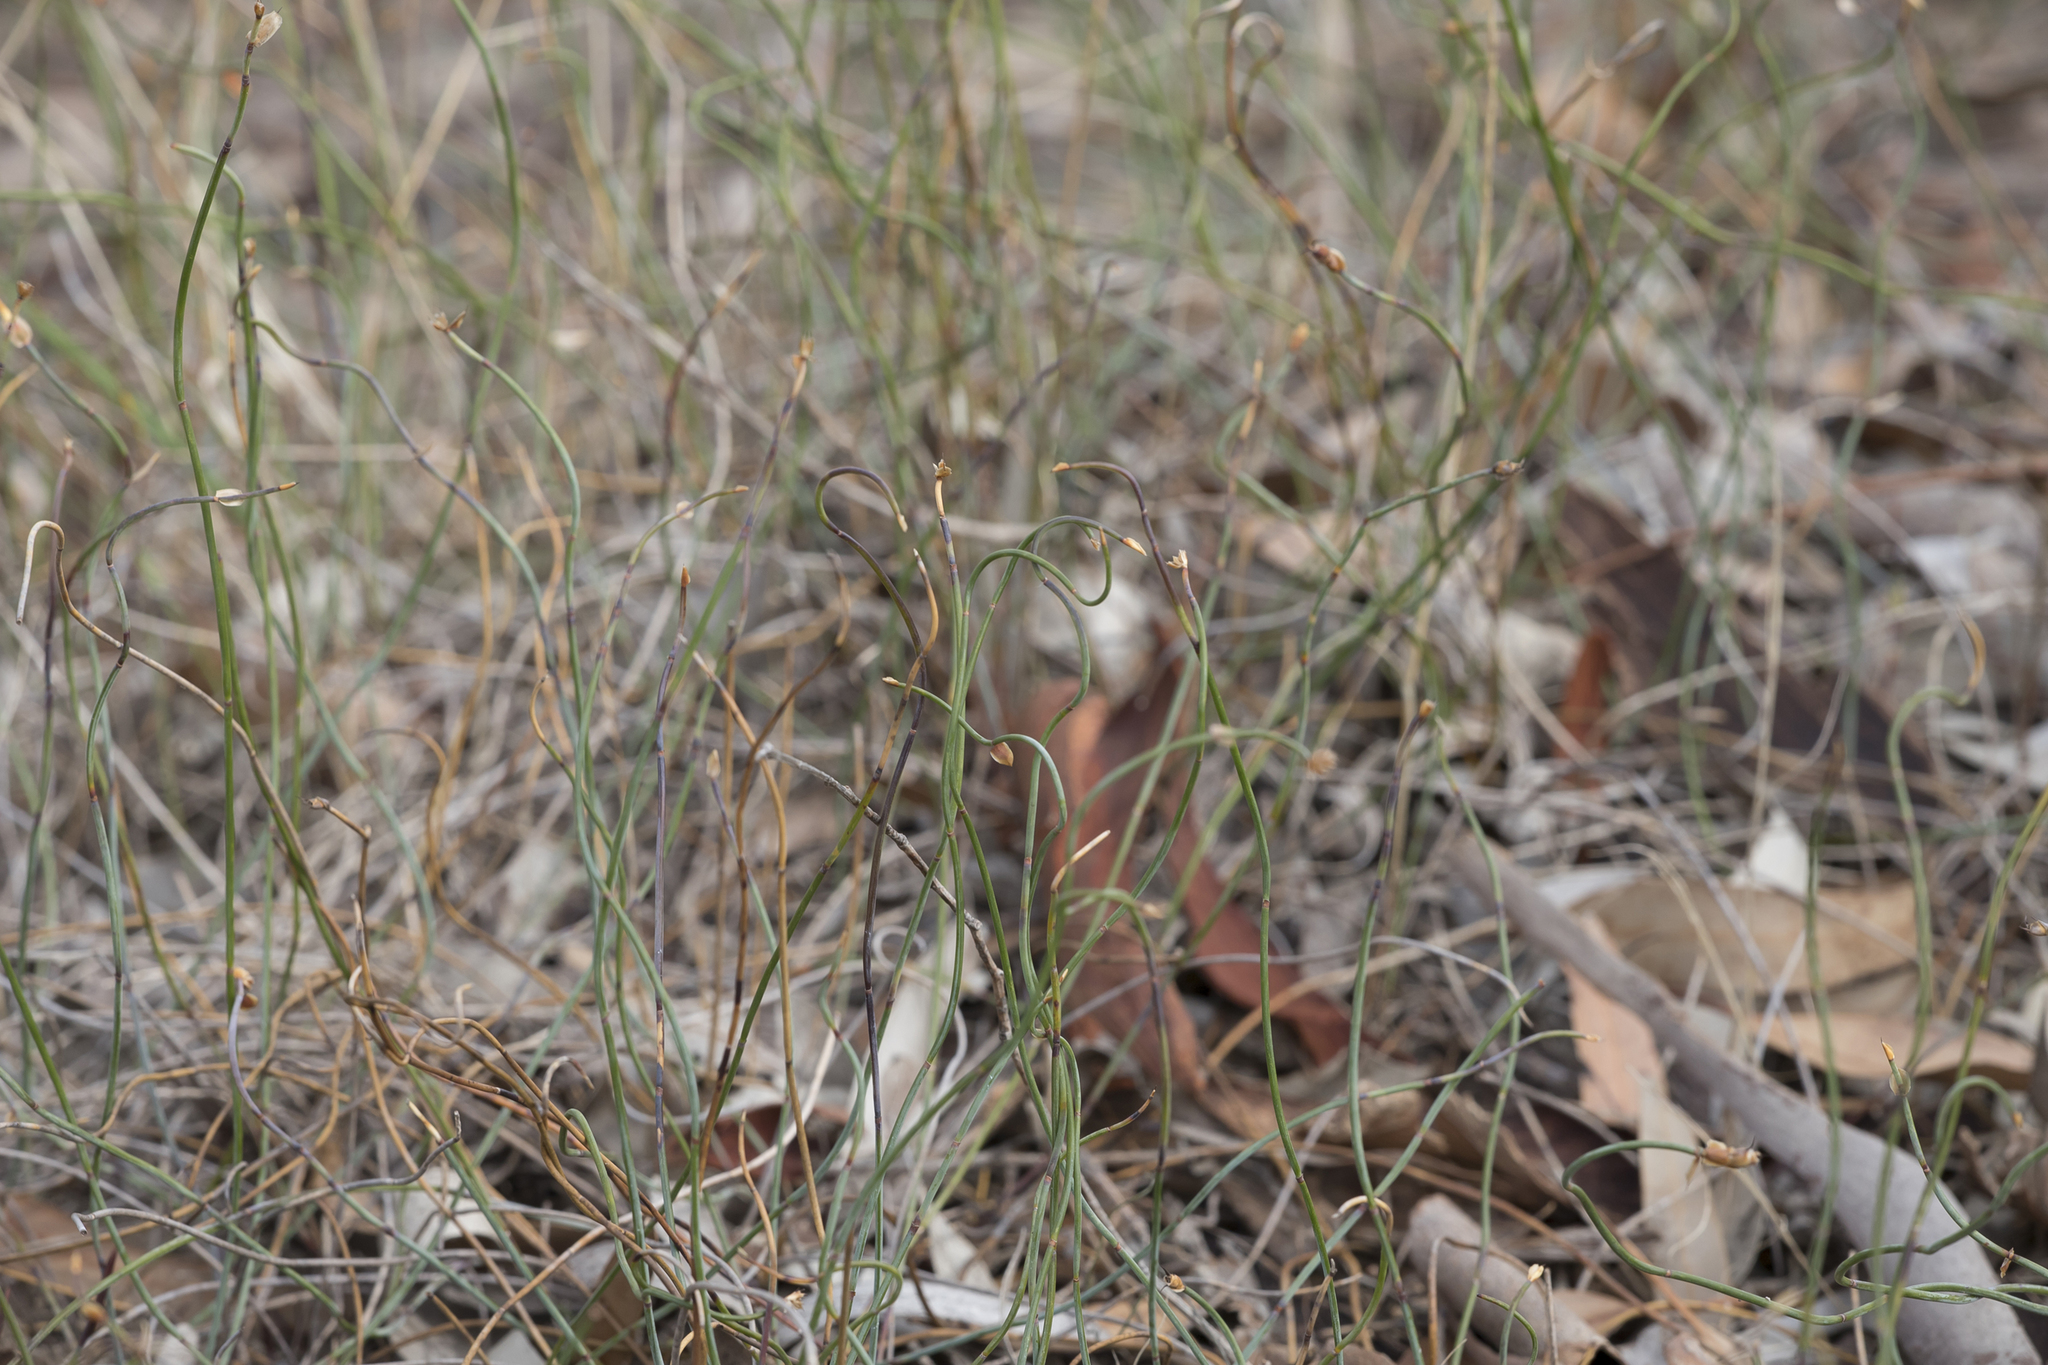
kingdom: Plantae
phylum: Tracheophyta
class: Liliopsida
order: Poales
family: Restionaceae
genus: Lepidobolus
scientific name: Lepidobolus drapetocoleus
